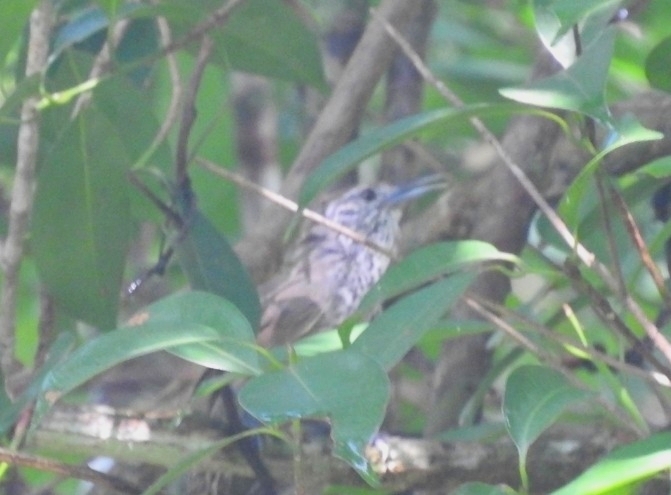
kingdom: Animalia
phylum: Chordata
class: Aves
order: Passeriformes
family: Troglodytidae
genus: Pheugopedius
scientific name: Pheugopedius maculipectus
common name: Spot-breasted wren
